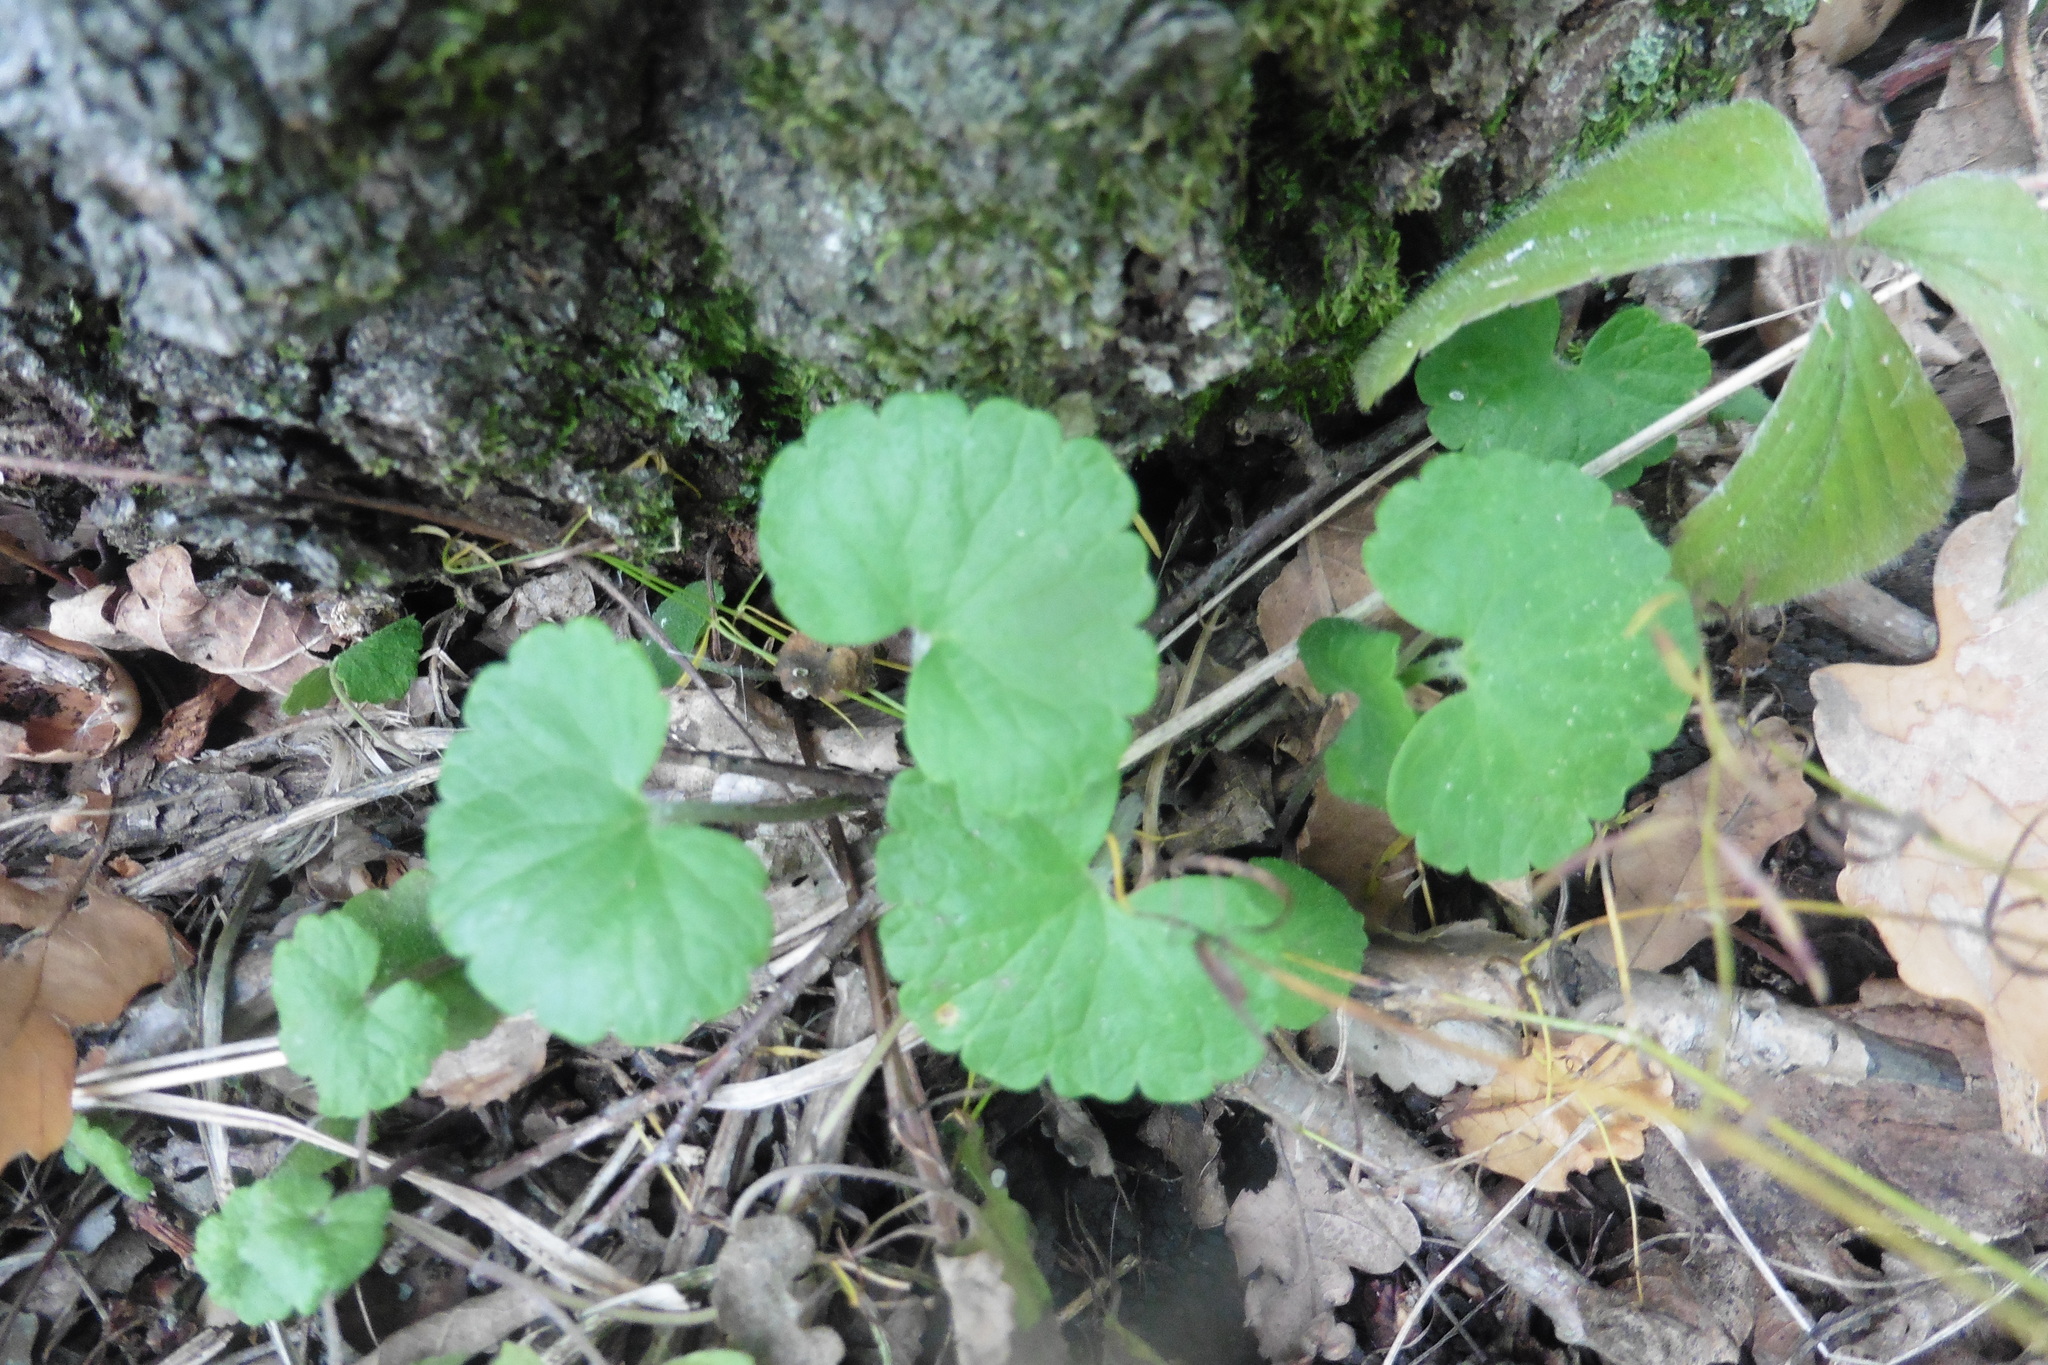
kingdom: Plantae
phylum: Tracheophyta
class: Magnoliopsida
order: Lamiales
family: Lamiaceae
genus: Glechoma
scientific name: Glechoma hederacea
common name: Ground ivy
